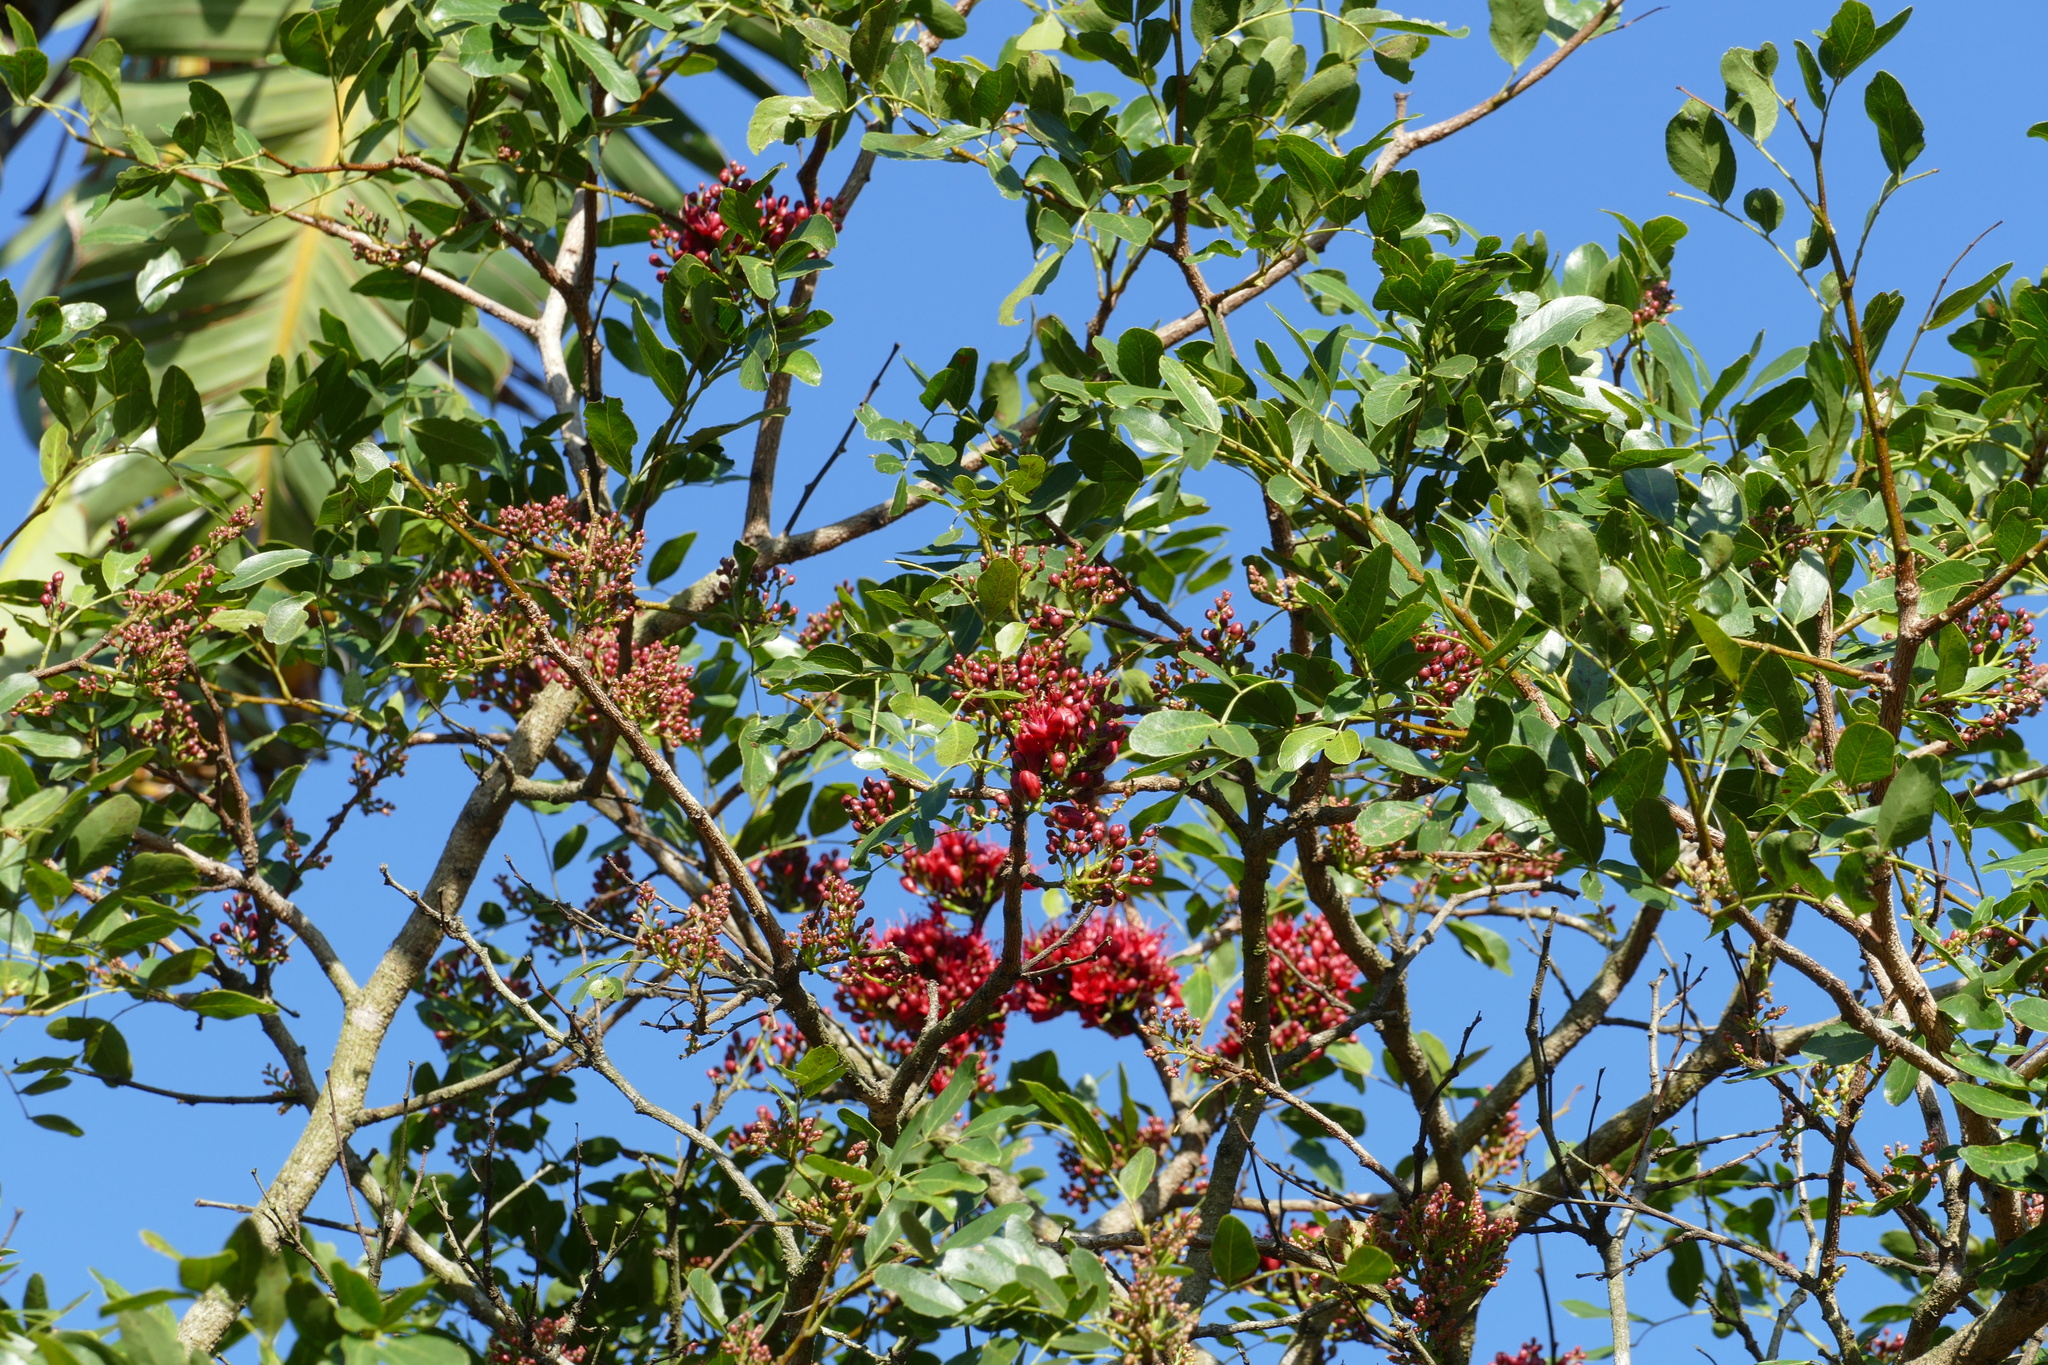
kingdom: Plantae
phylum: Tracheophyta
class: Magnoliopsida
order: Fabales
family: Fabaceae
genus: Schotia
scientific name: Schotia brachypetala
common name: Weeping boer-bean
